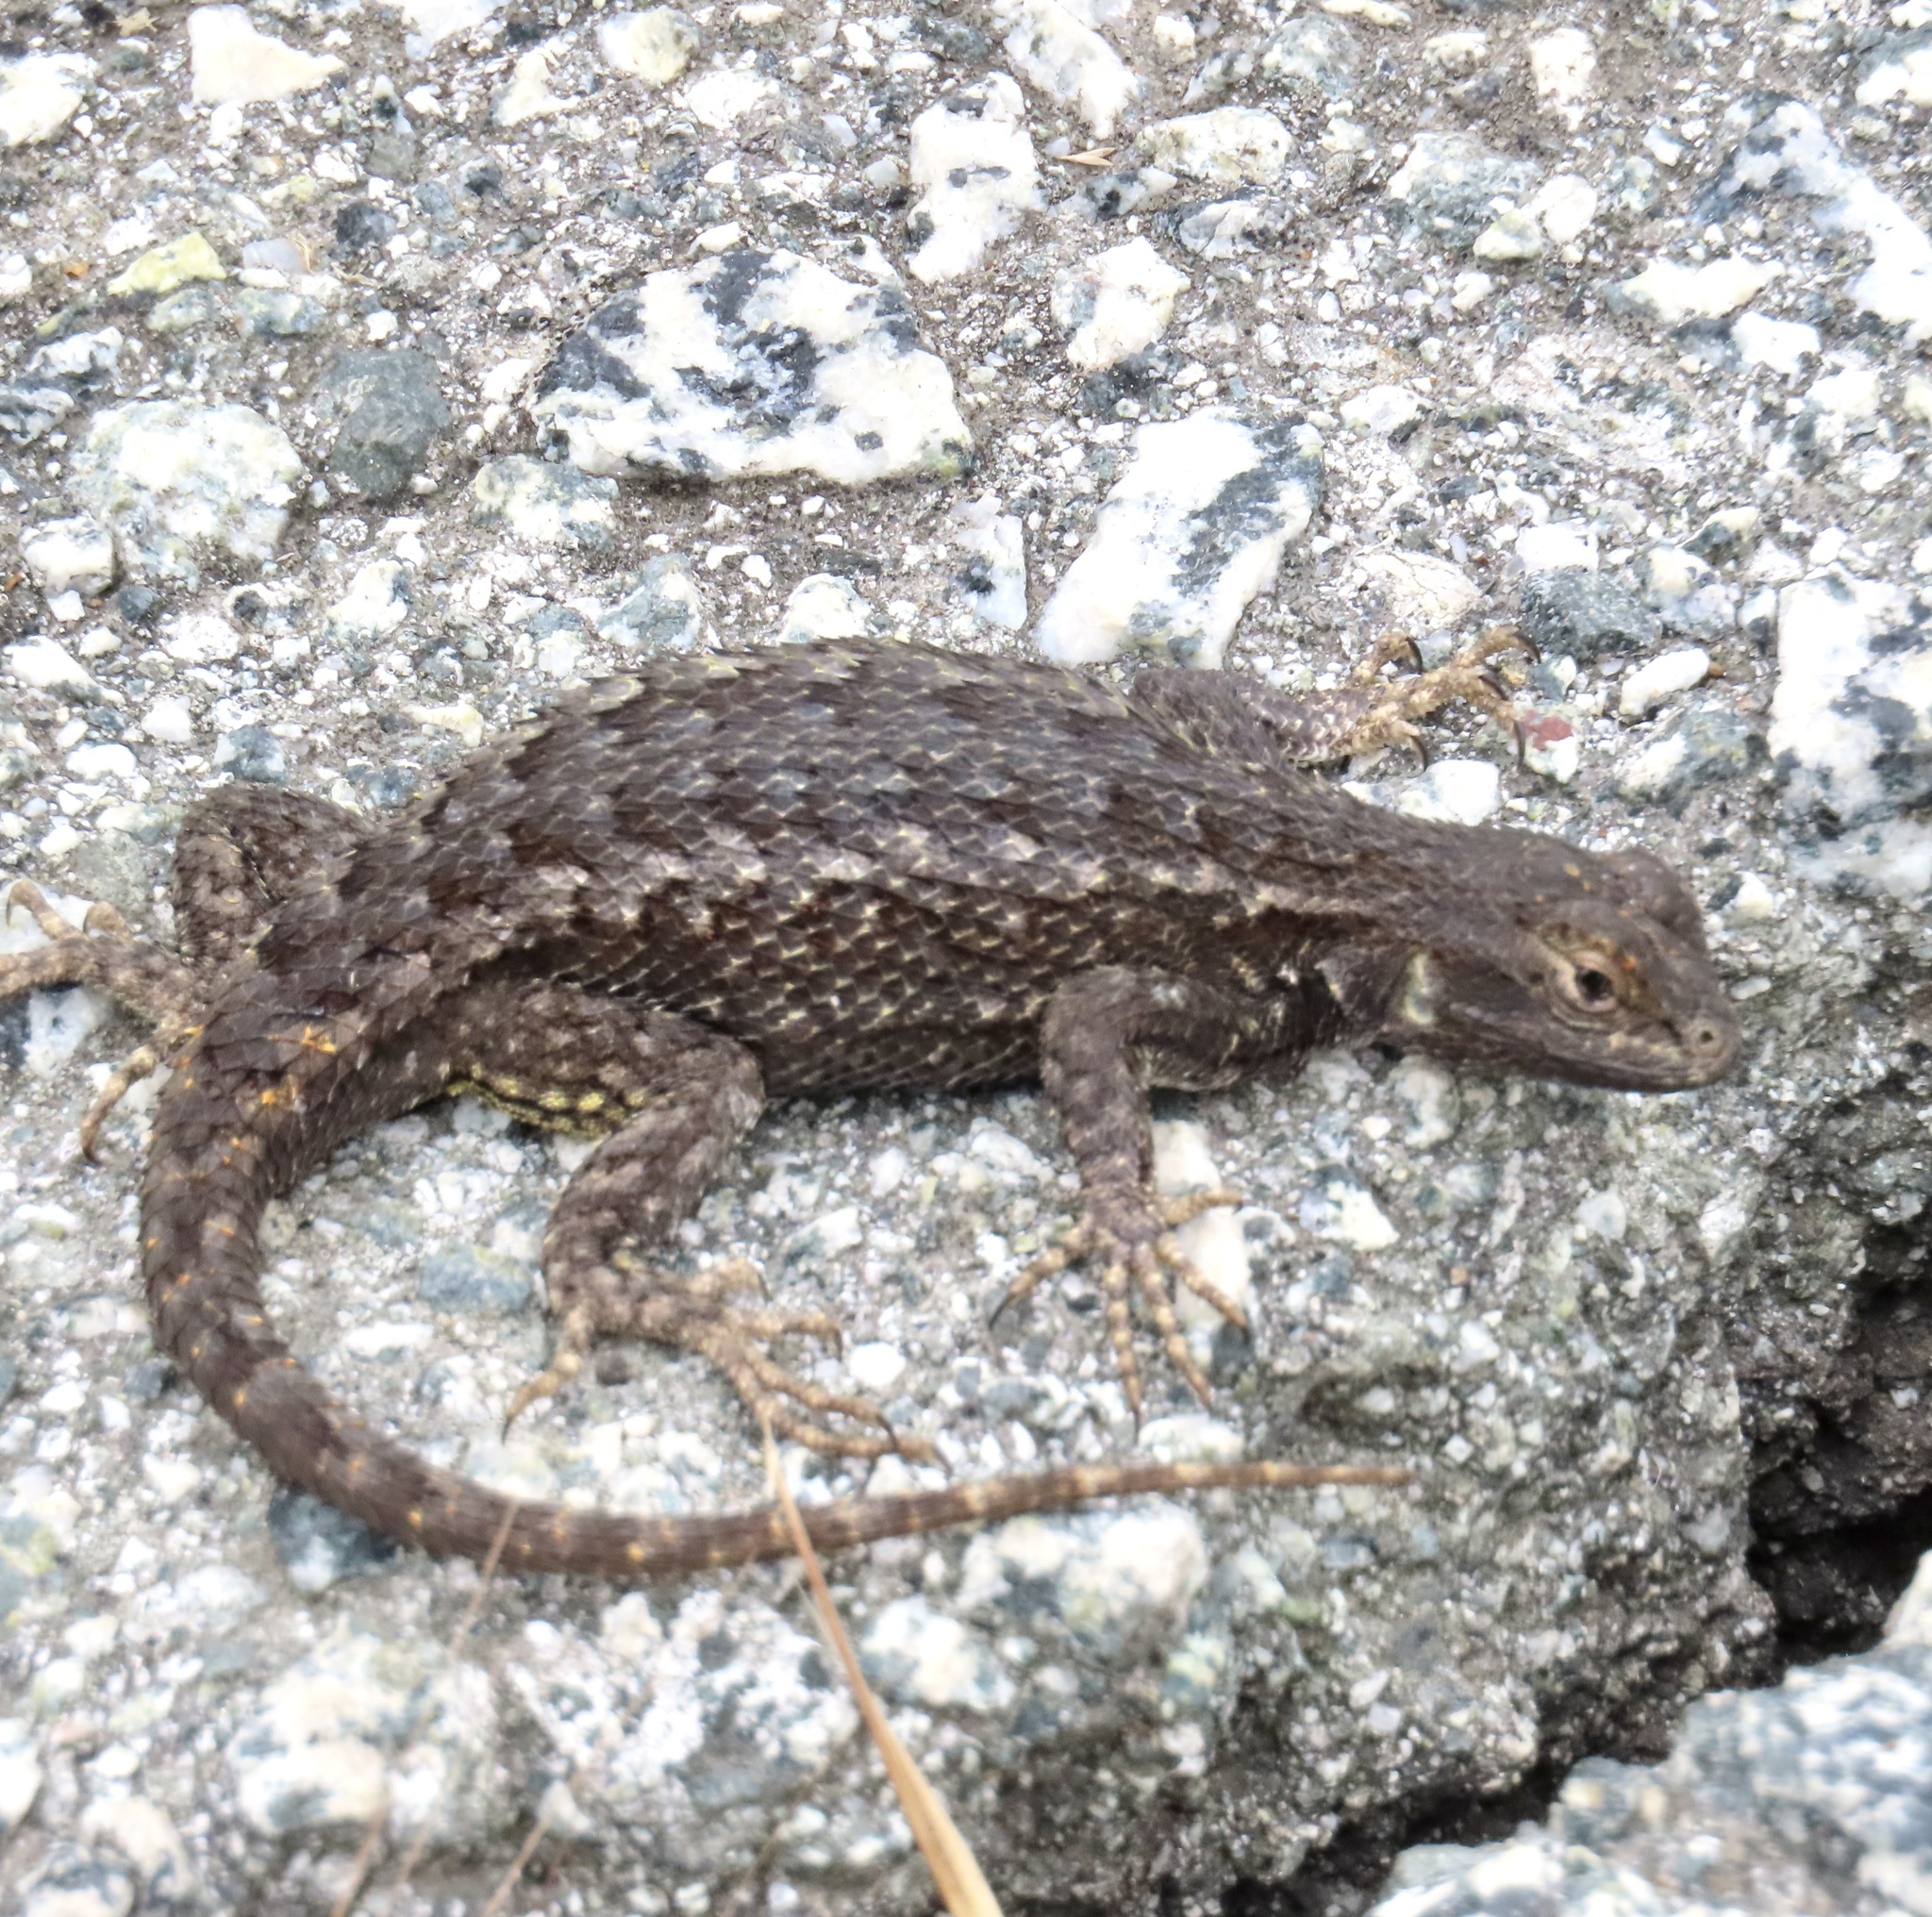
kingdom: Animalia
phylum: Chordata
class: Squamata
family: Phrynosomatidae
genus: Sceloporus
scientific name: Sceloporus occidentalis
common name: Western fence lizard
